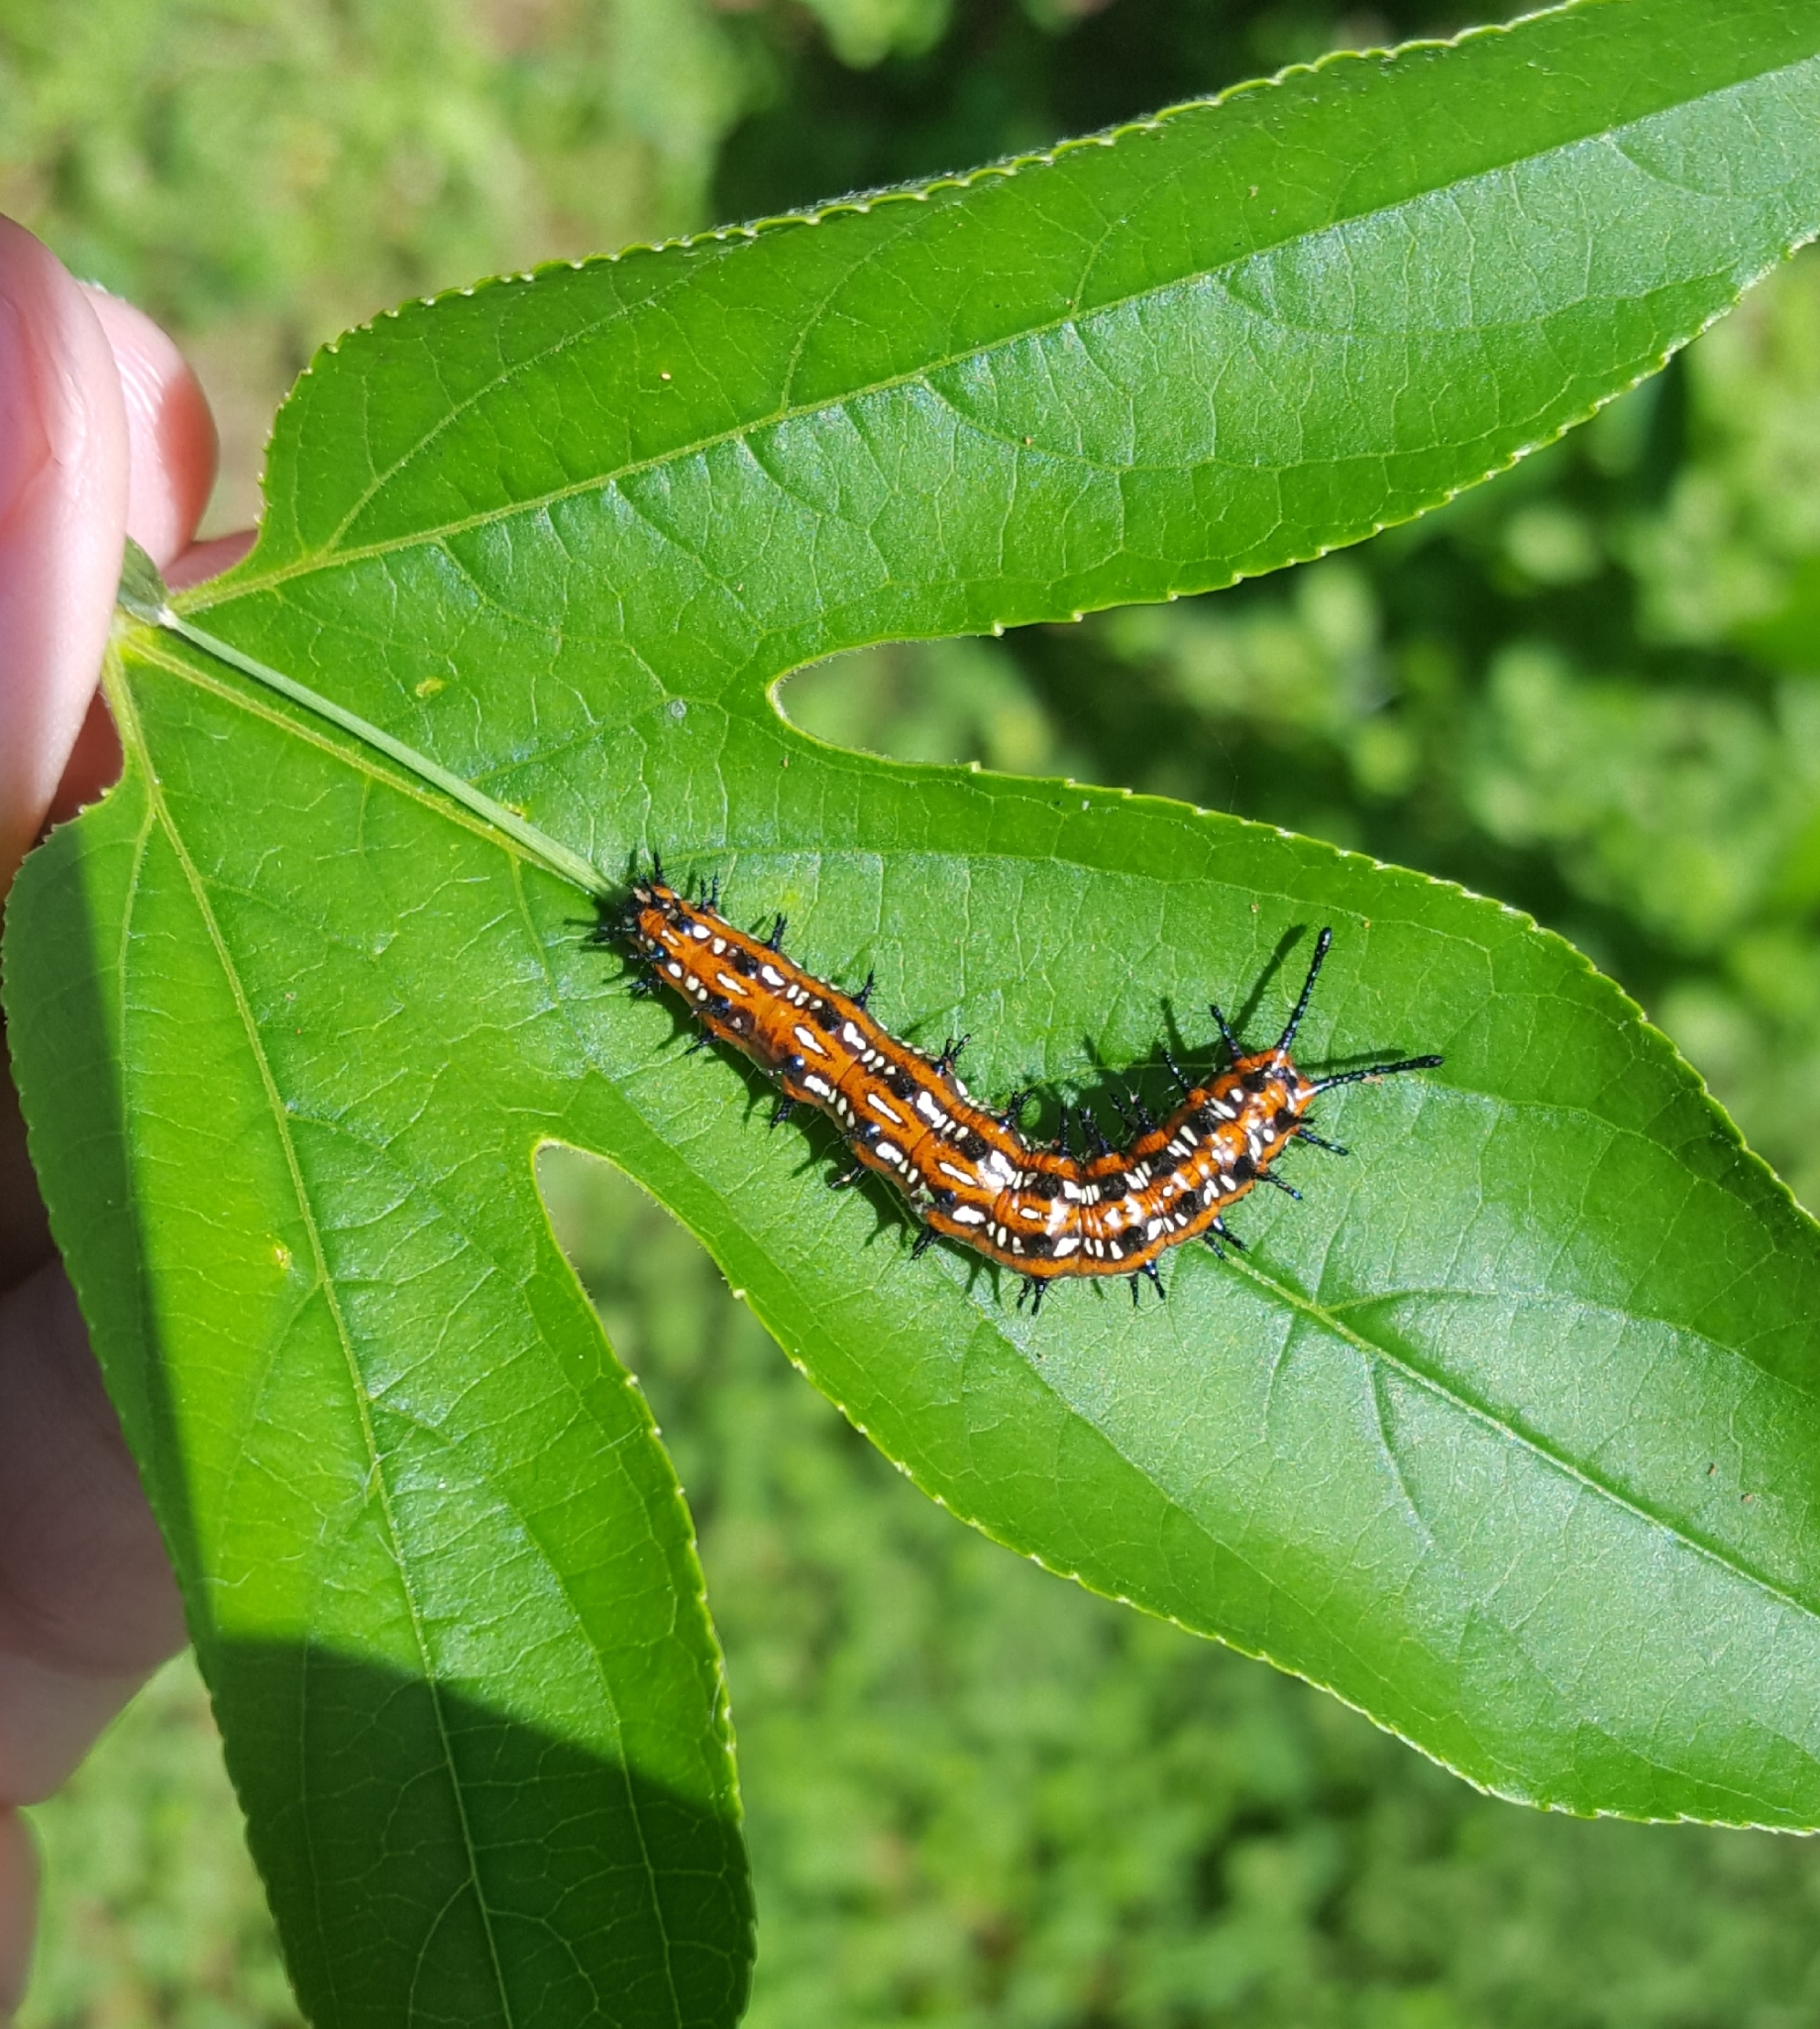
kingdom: Animalia
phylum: Arthropoda
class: Insecta
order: Lepidoptera
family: Nymphalidae
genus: Euptoieta
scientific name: Euptoieta claudia
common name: Variegated fritillary
